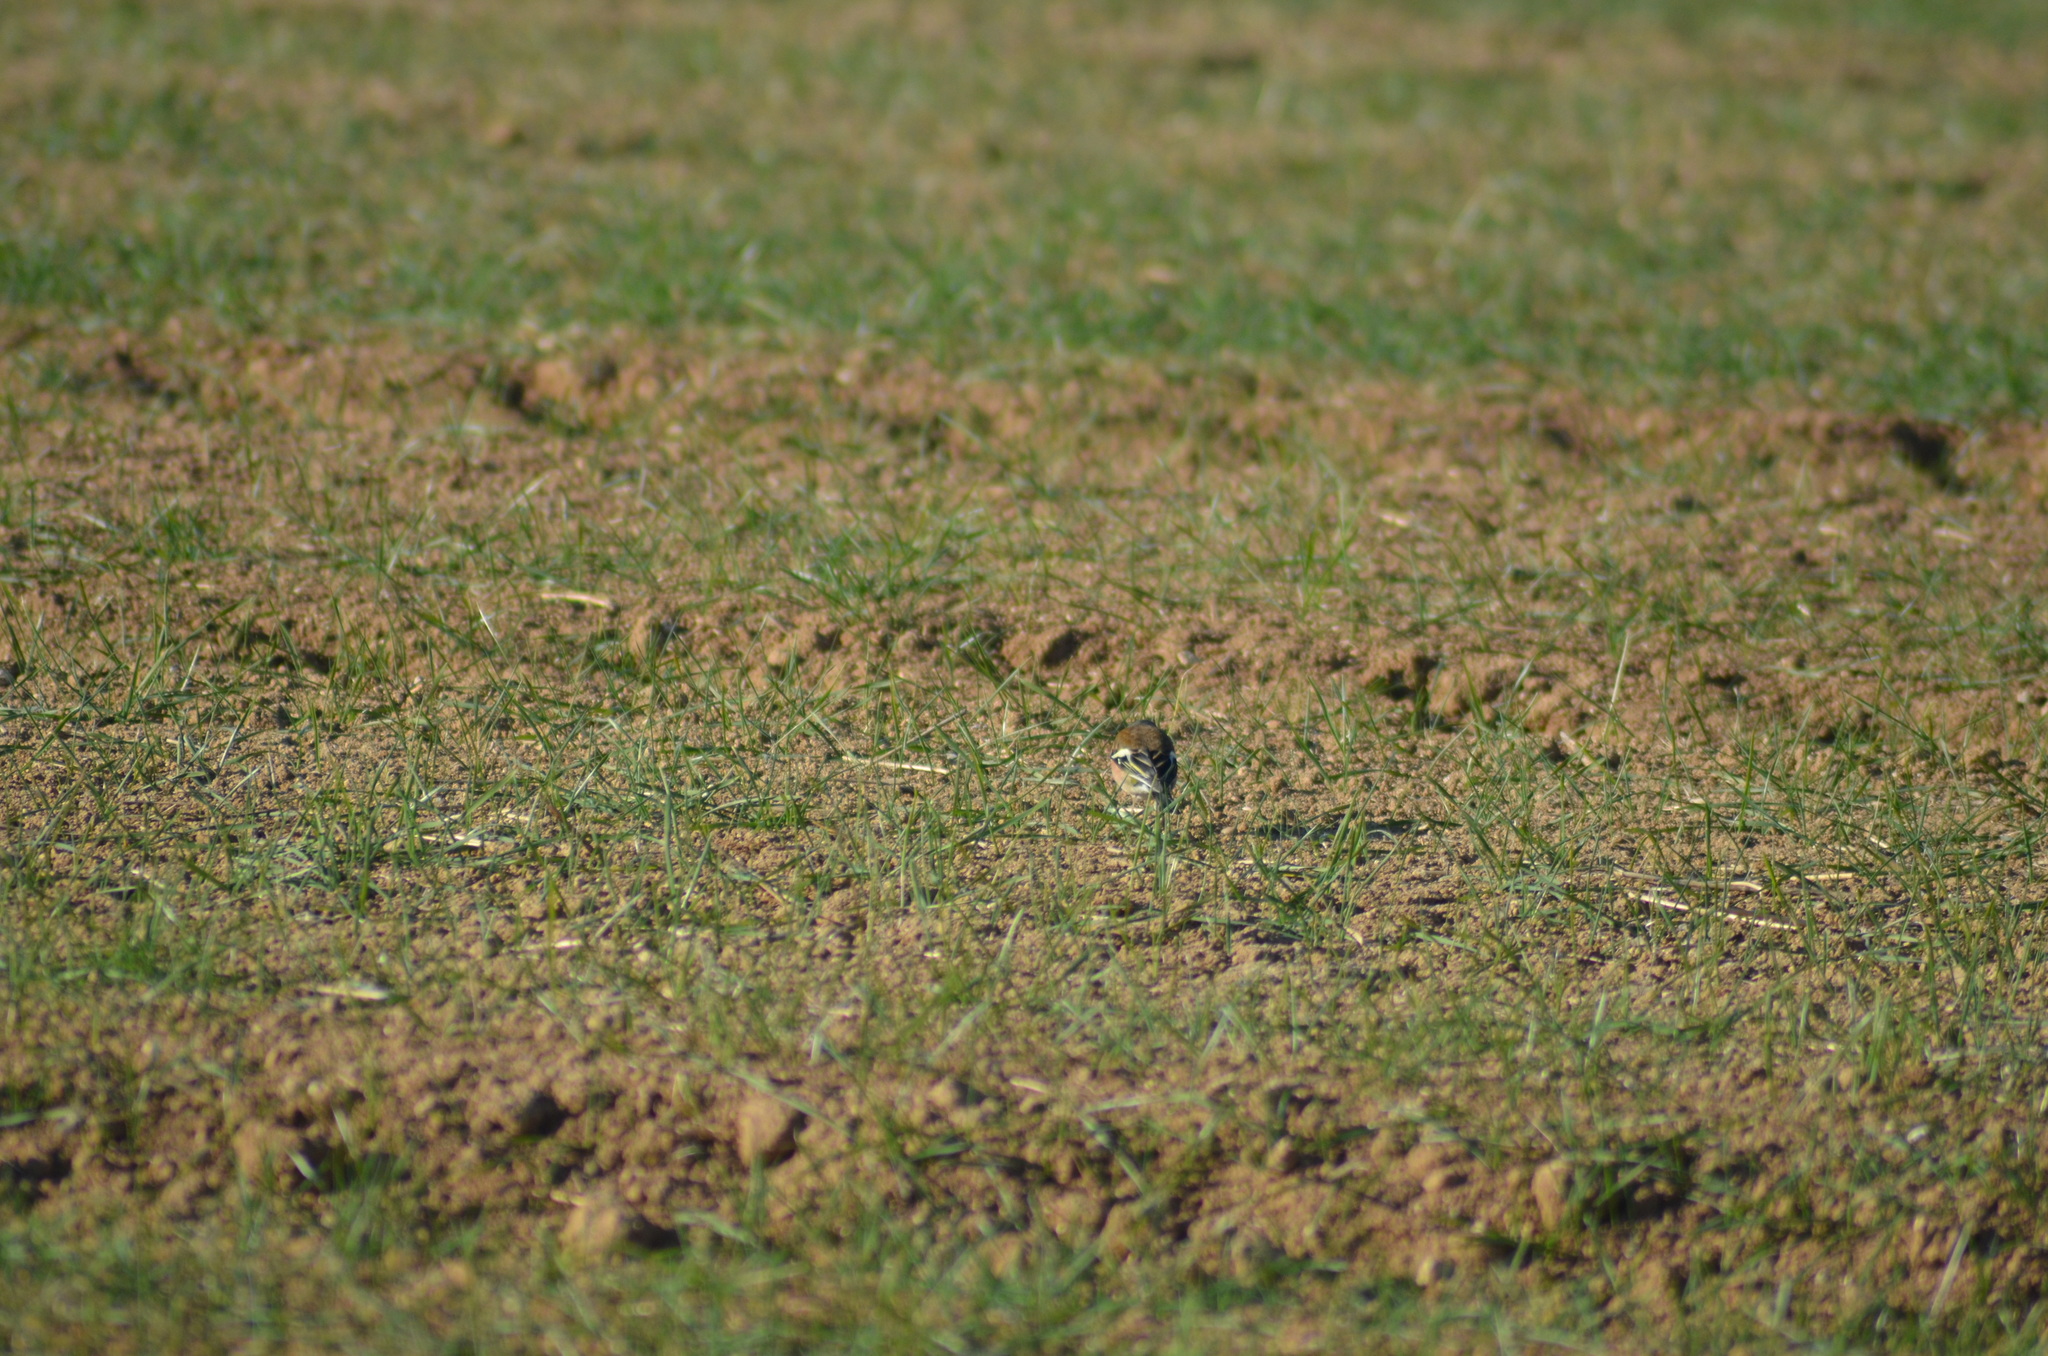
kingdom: Animalia
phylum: Chordata
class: Aves
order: Passeriformes
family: Fringillidae
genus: Fringilla
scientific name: Fringilla coelebs
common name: Common chaffinch
